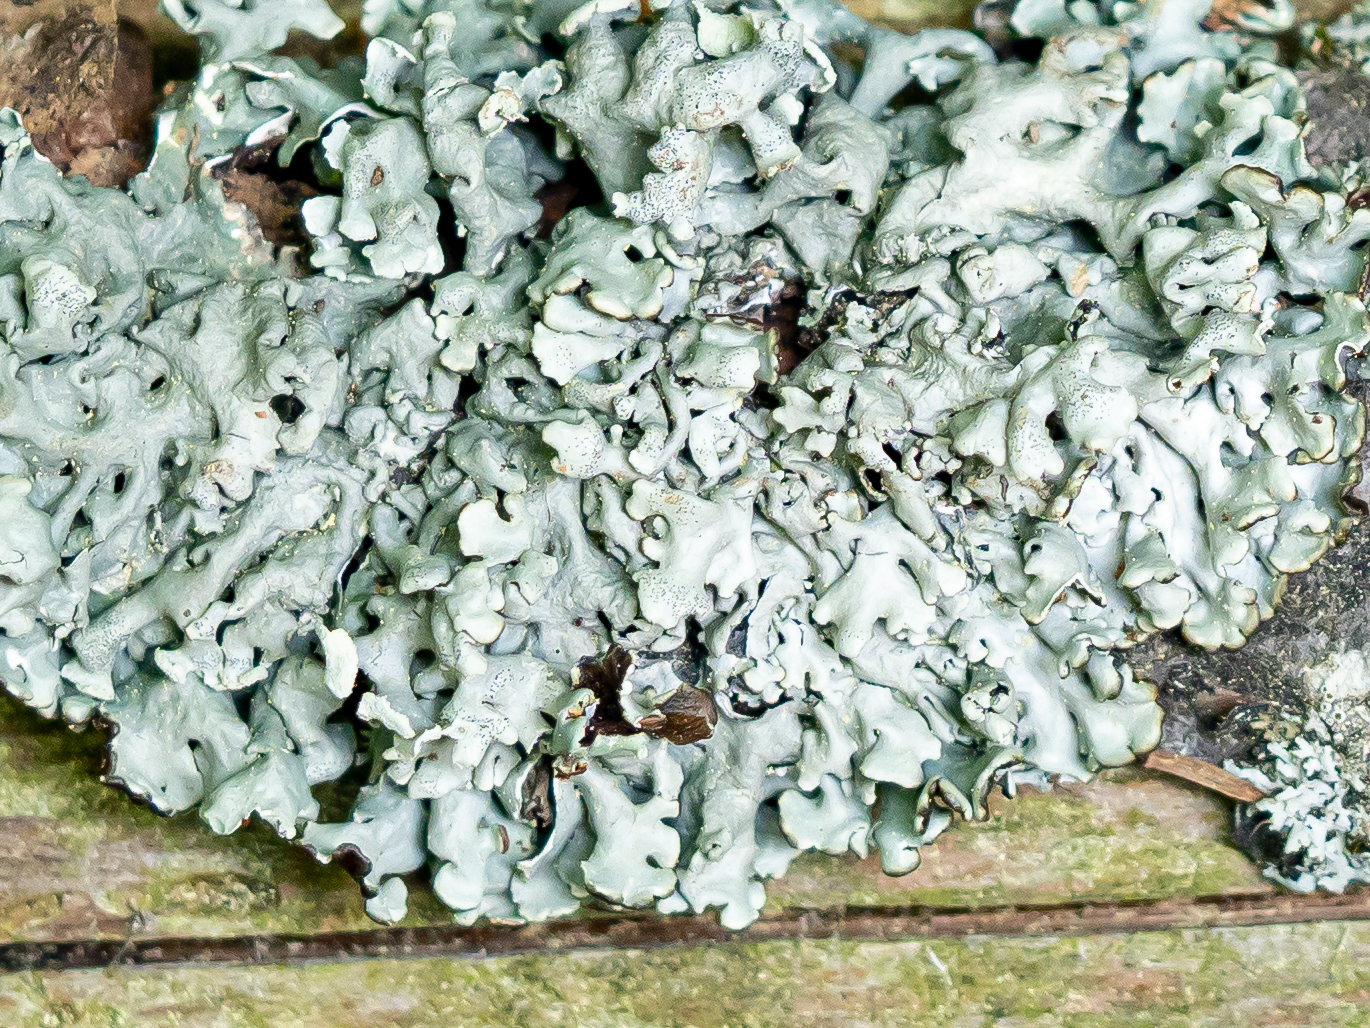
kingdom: Fungi
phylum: Ascomycota
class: Lecanoromycetes
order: Lecanorales
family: Parmeliaceae
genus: Hypogymnia
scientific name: Hypogymnia physodes
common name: Dark crottle
